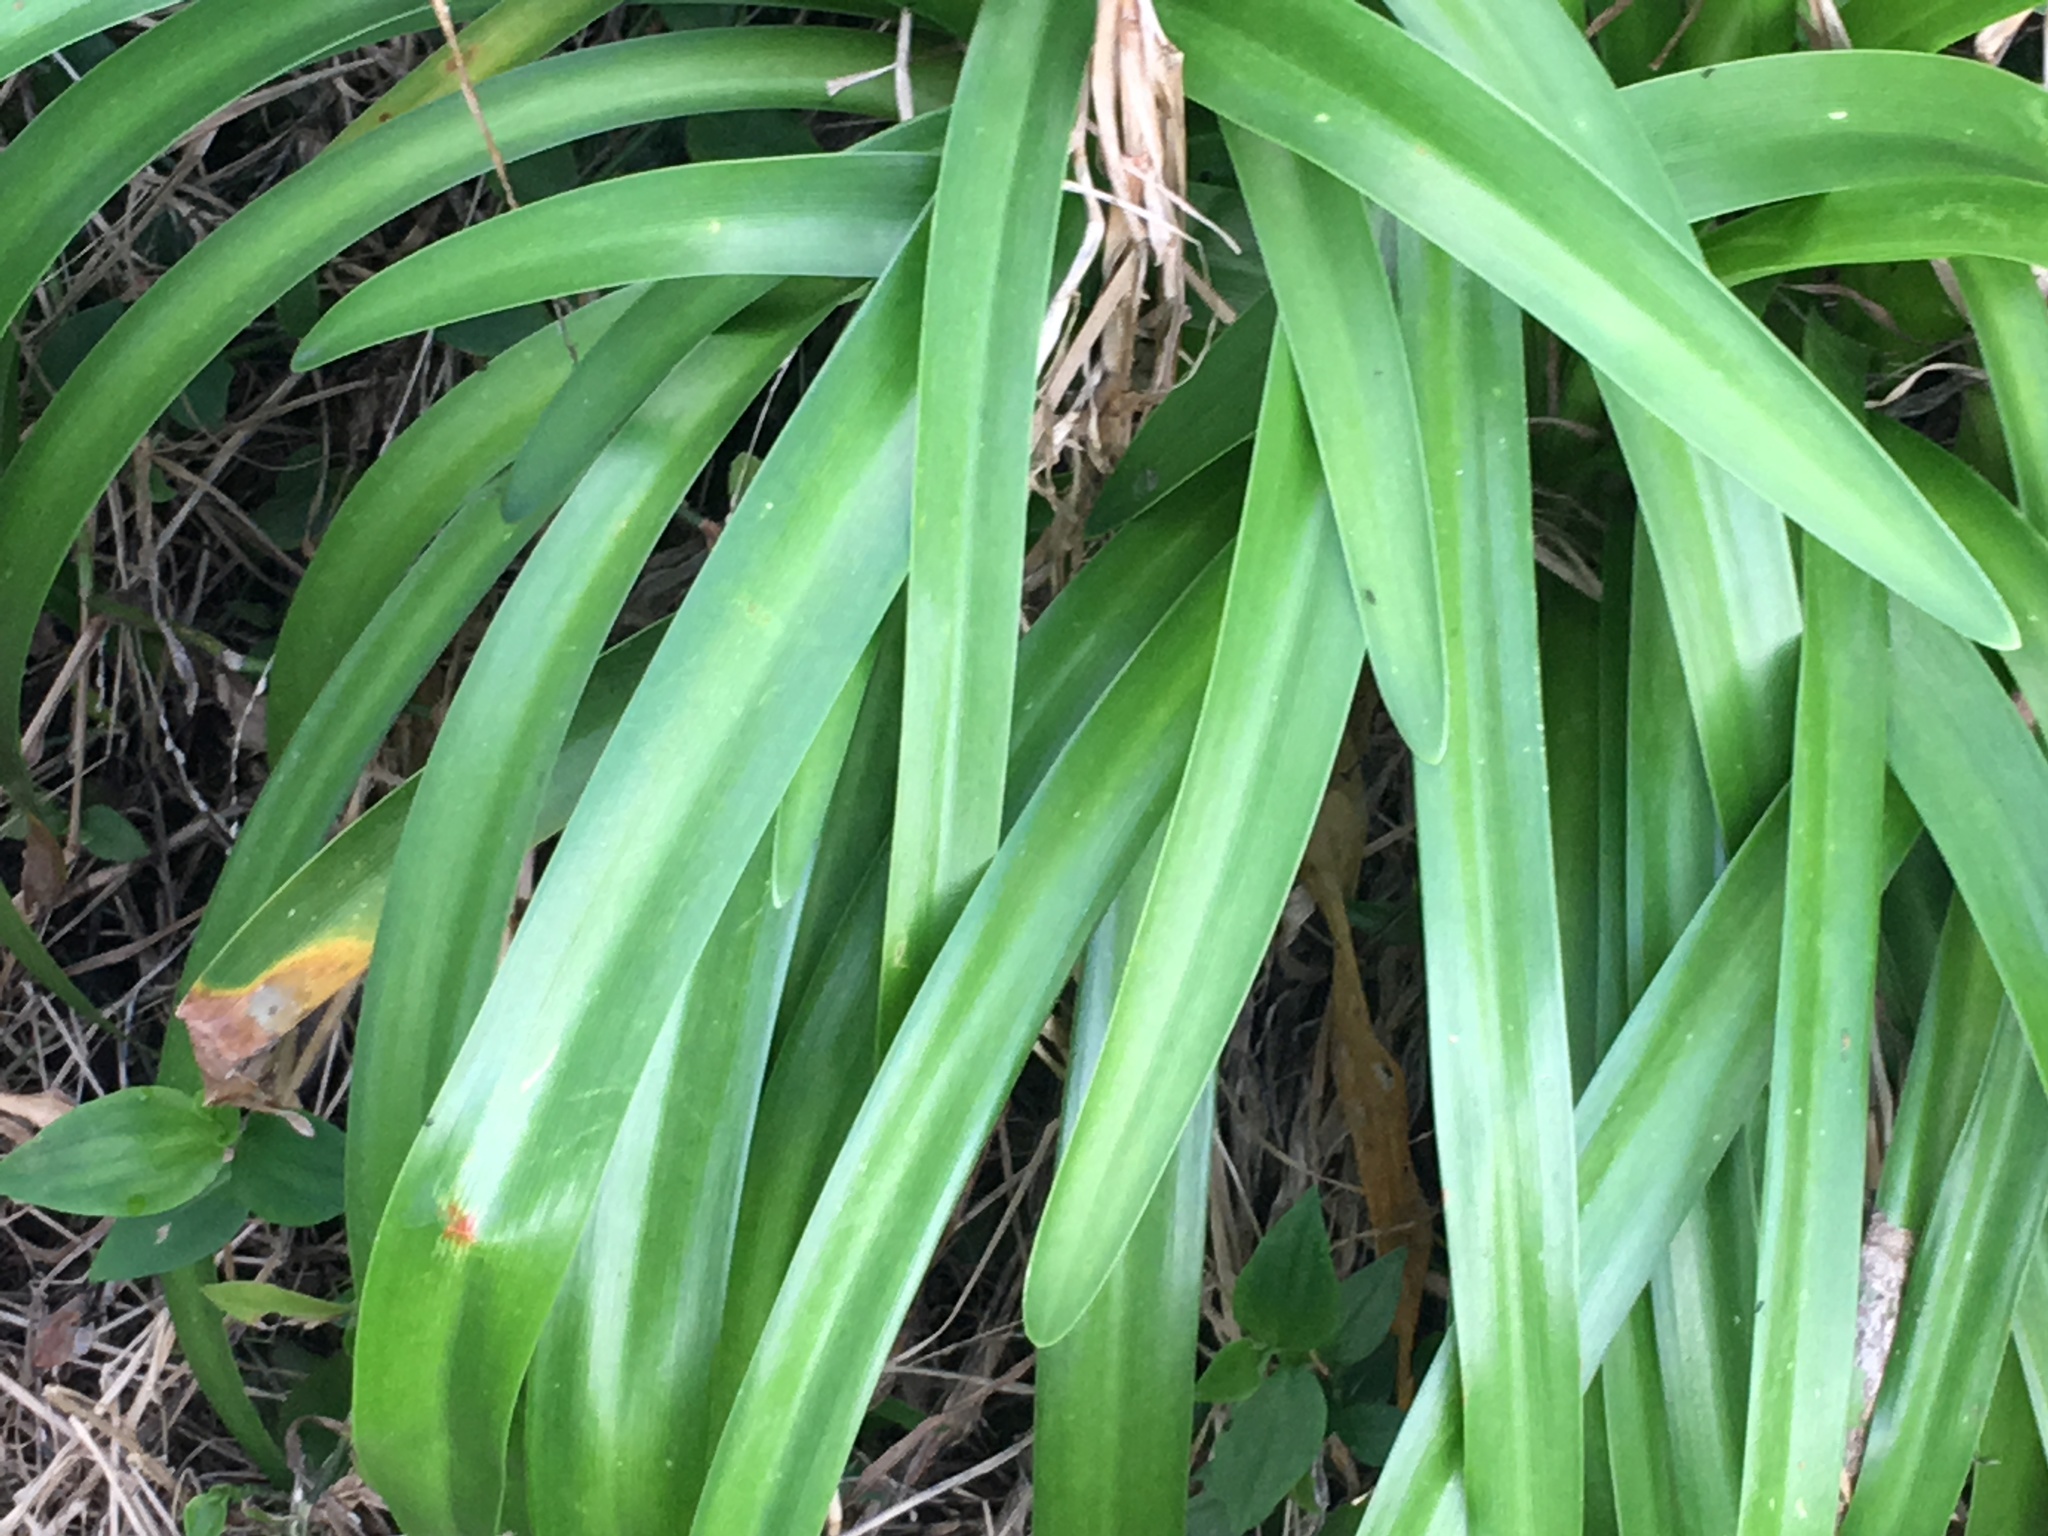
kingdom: Plantae
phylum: Tracheophyta
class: Liliopsida
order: Asparagales
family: Amaryllidaceae
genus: Agapanthus
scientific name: Agapanthus praecox
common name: African-lily
